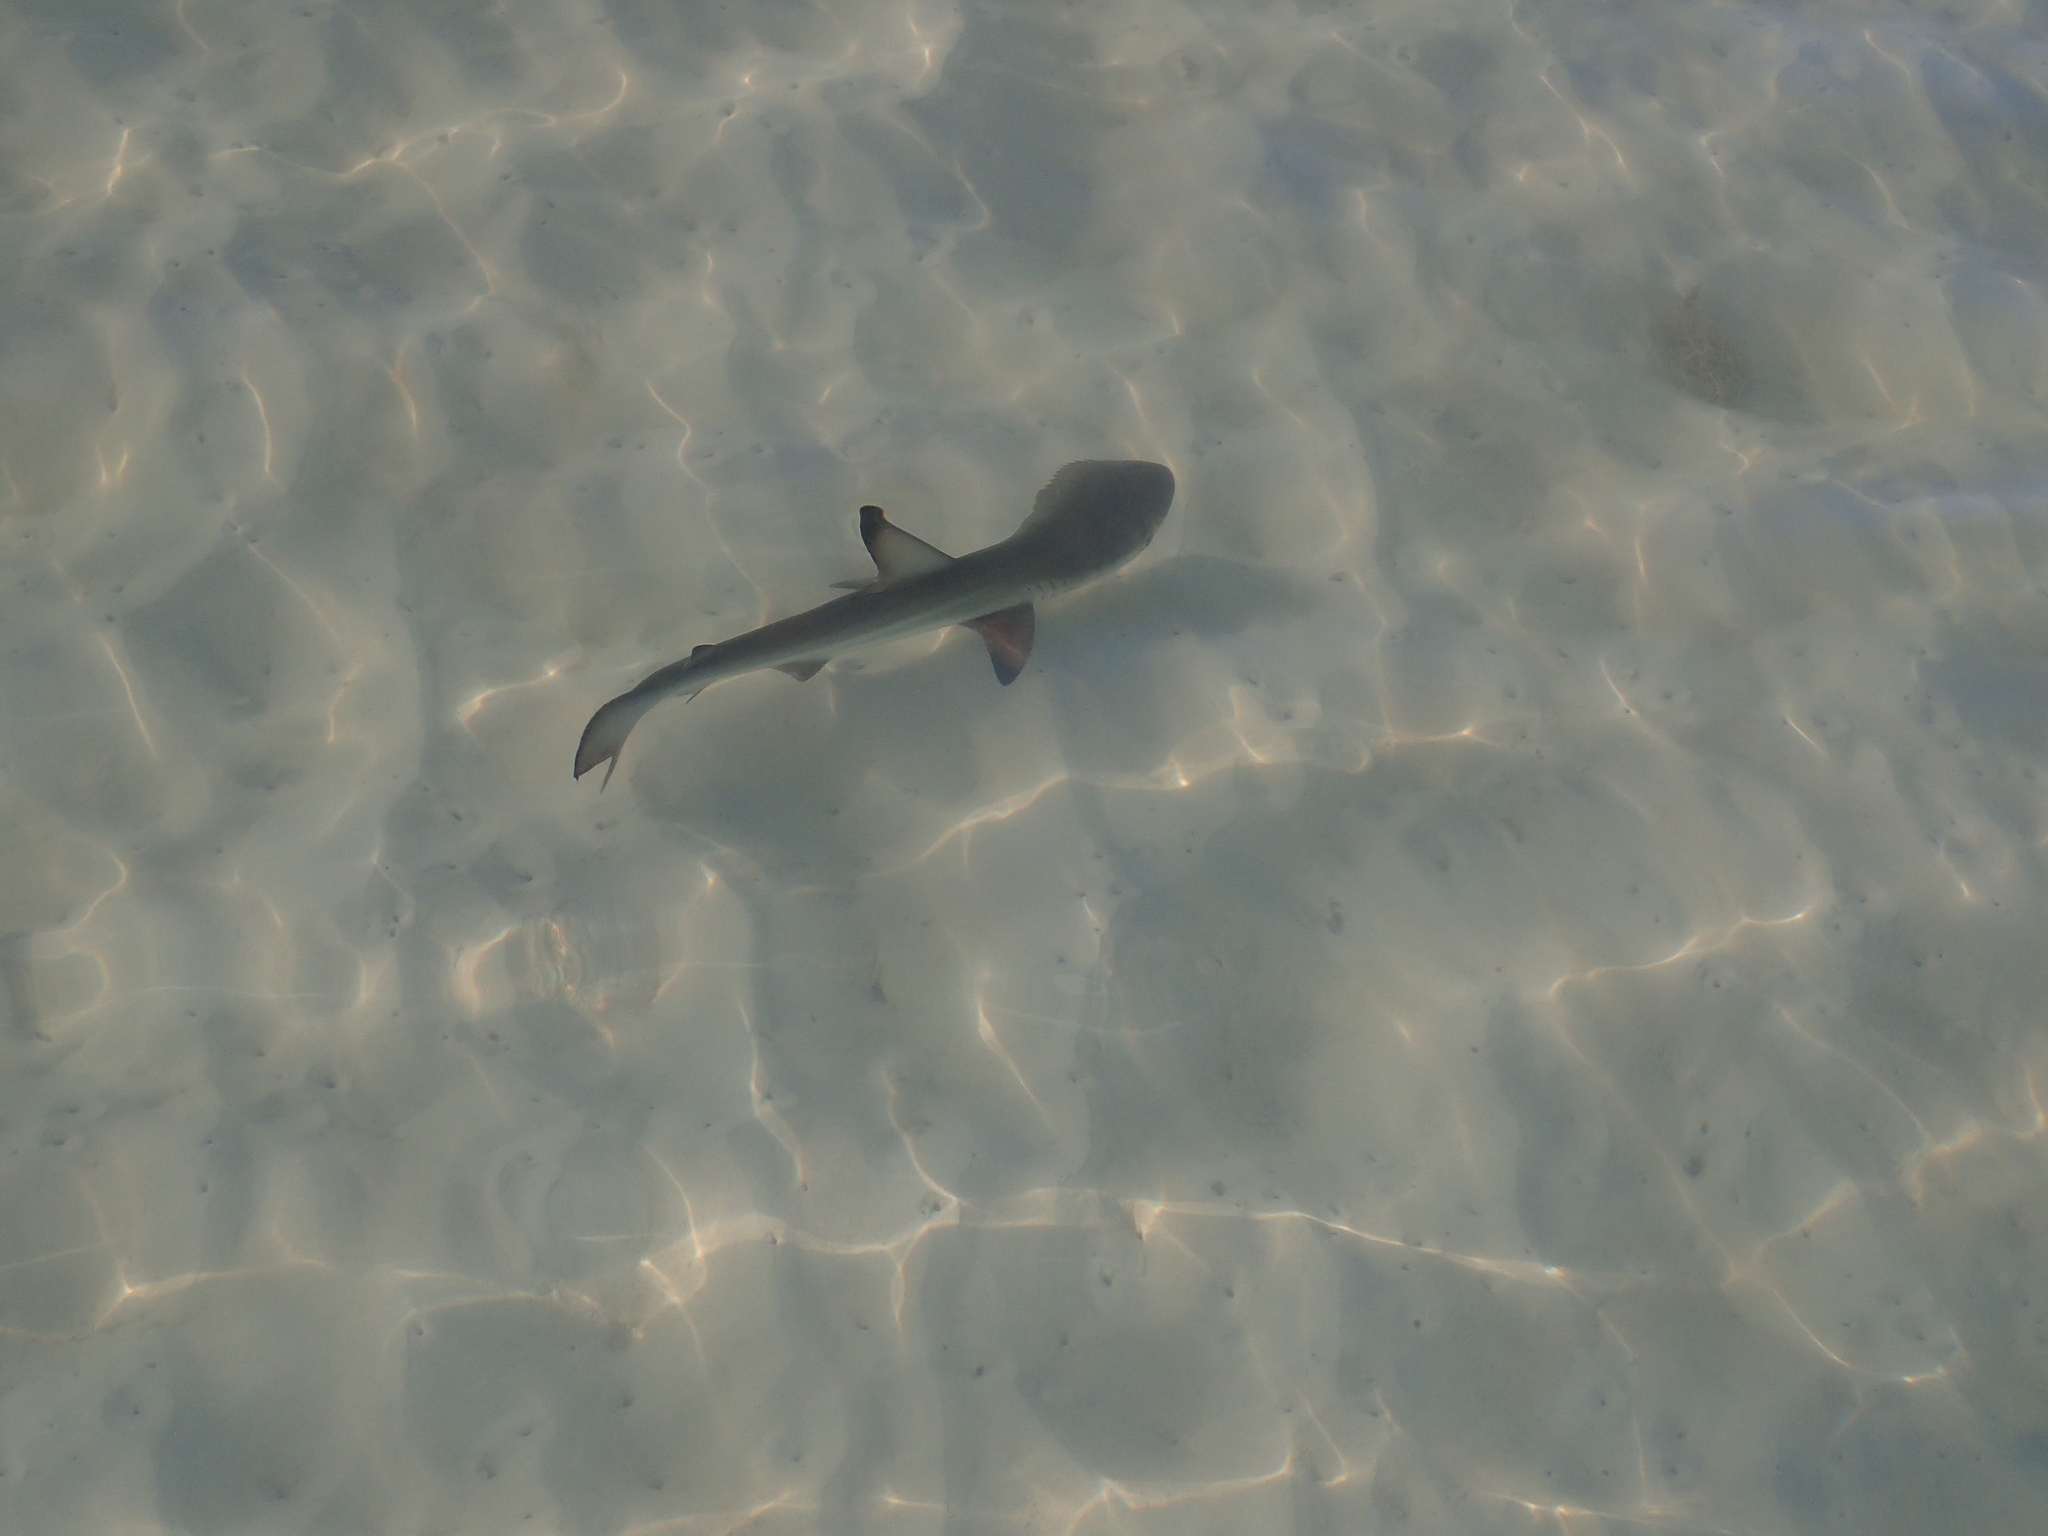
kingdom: Animalia
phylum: Chordata
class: Elasmobranchii
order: Carcharhiniformes
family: Carcharhinidae
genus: Carcharhinus
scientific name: Carcharhinus limbatus
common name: Blacktip shark
